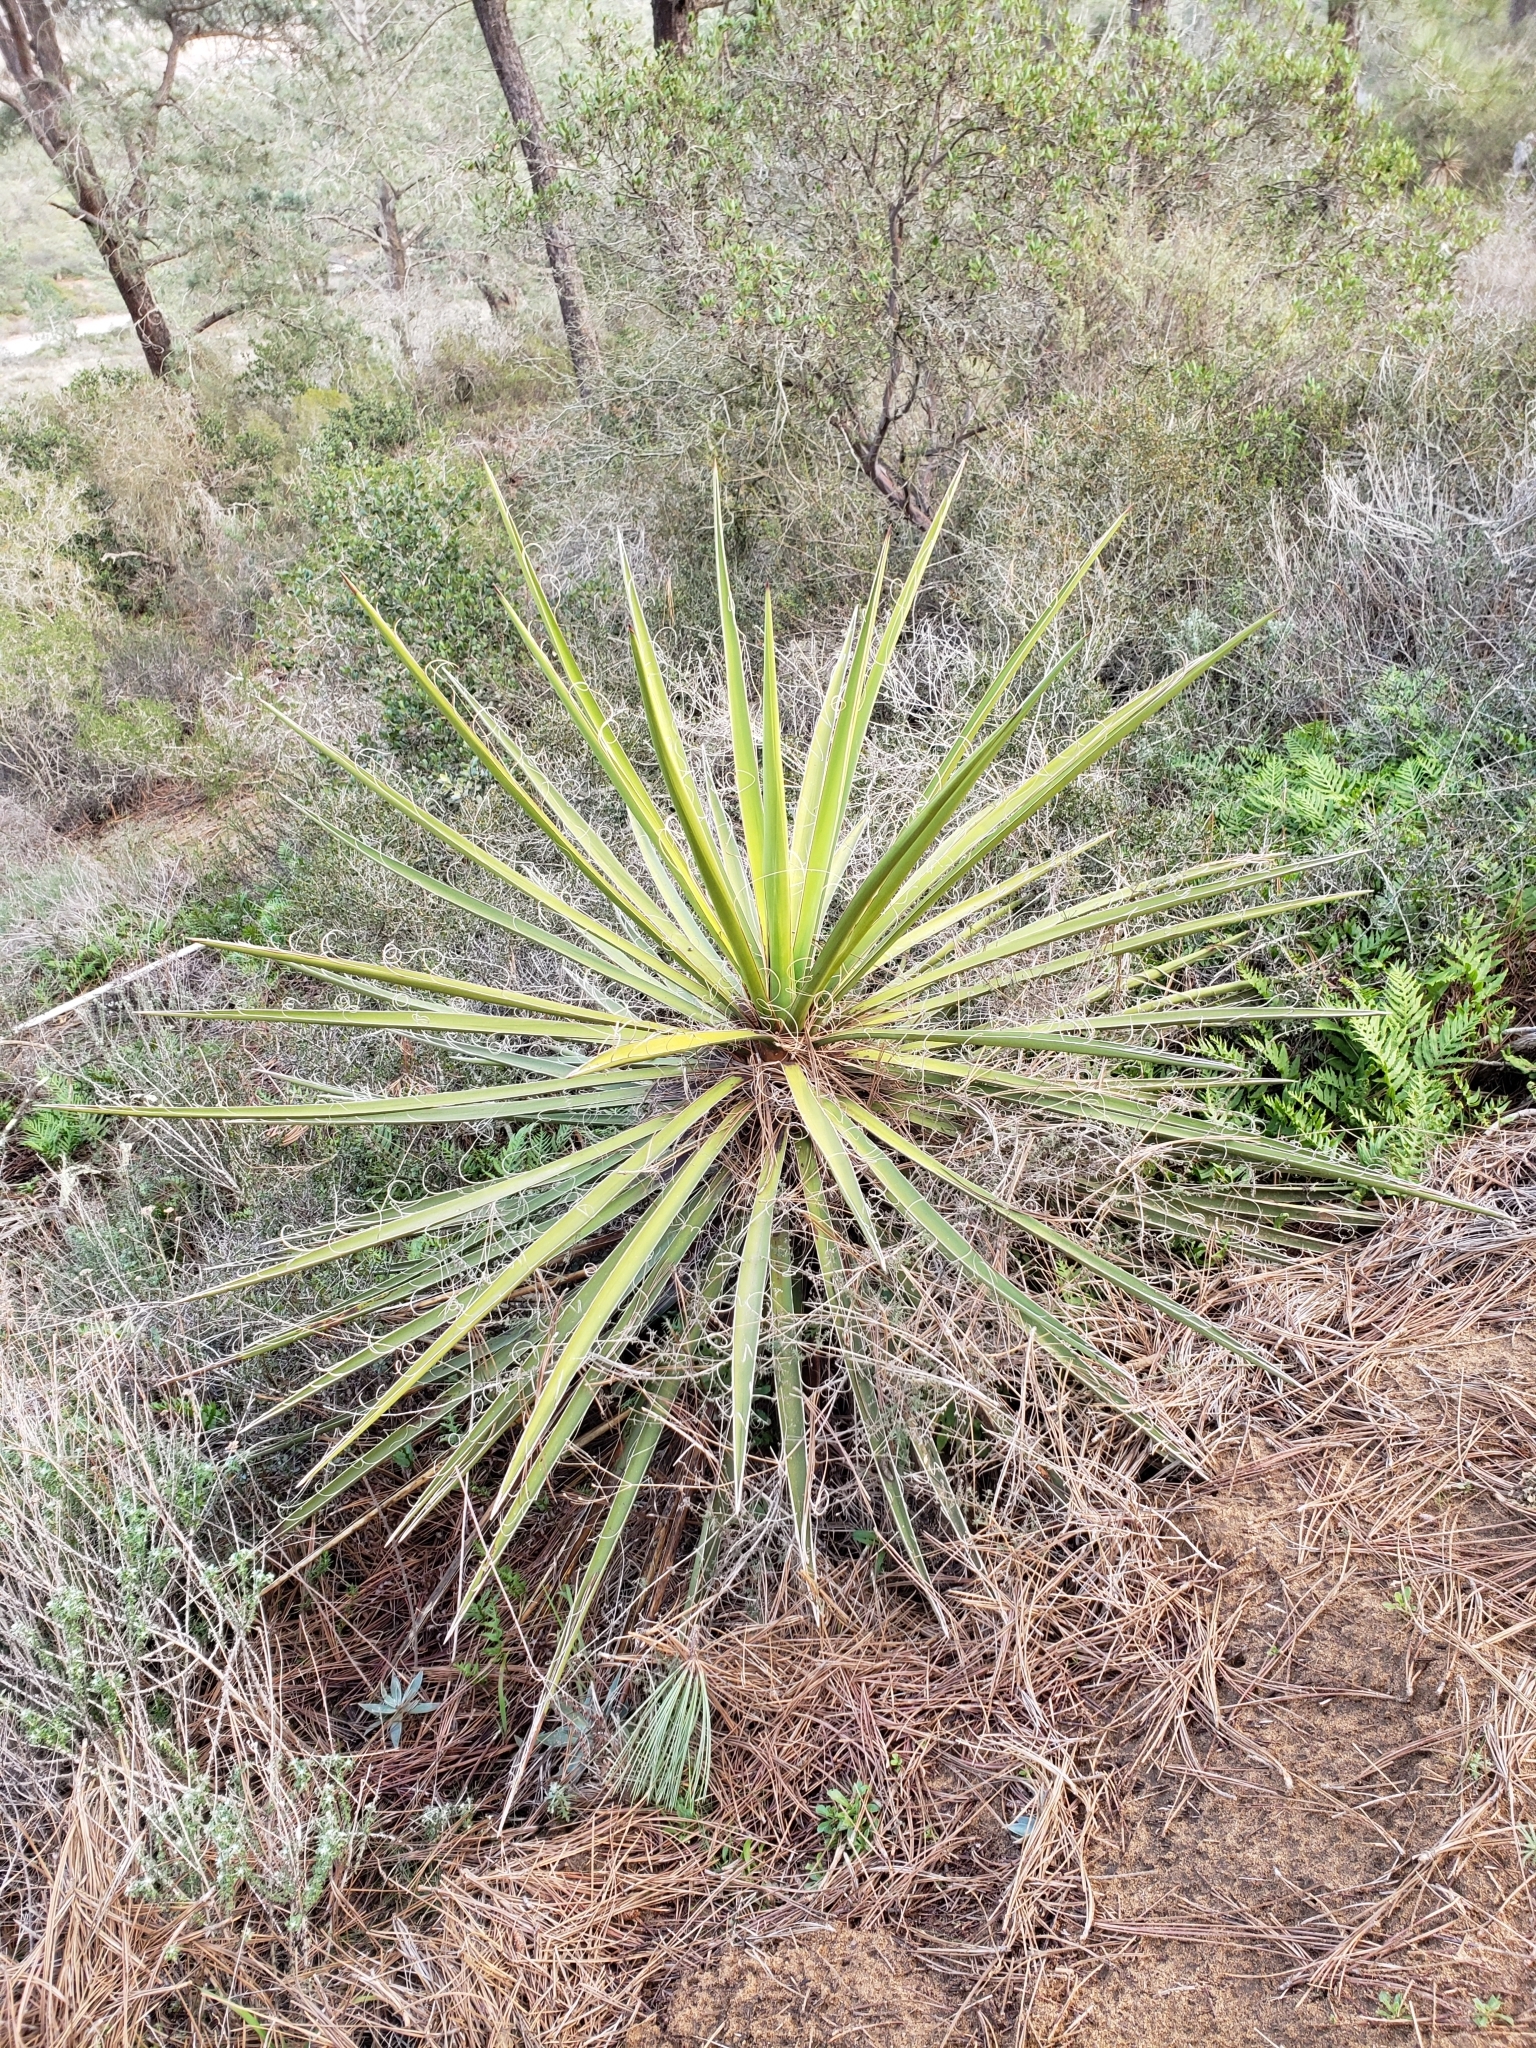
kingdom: Plantae
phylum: Tracheophyta
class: Liliopsida
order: Asparagales
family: Asparagaceae
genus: Yucca
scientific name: Yucca schidigera
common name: Mojave yucca
